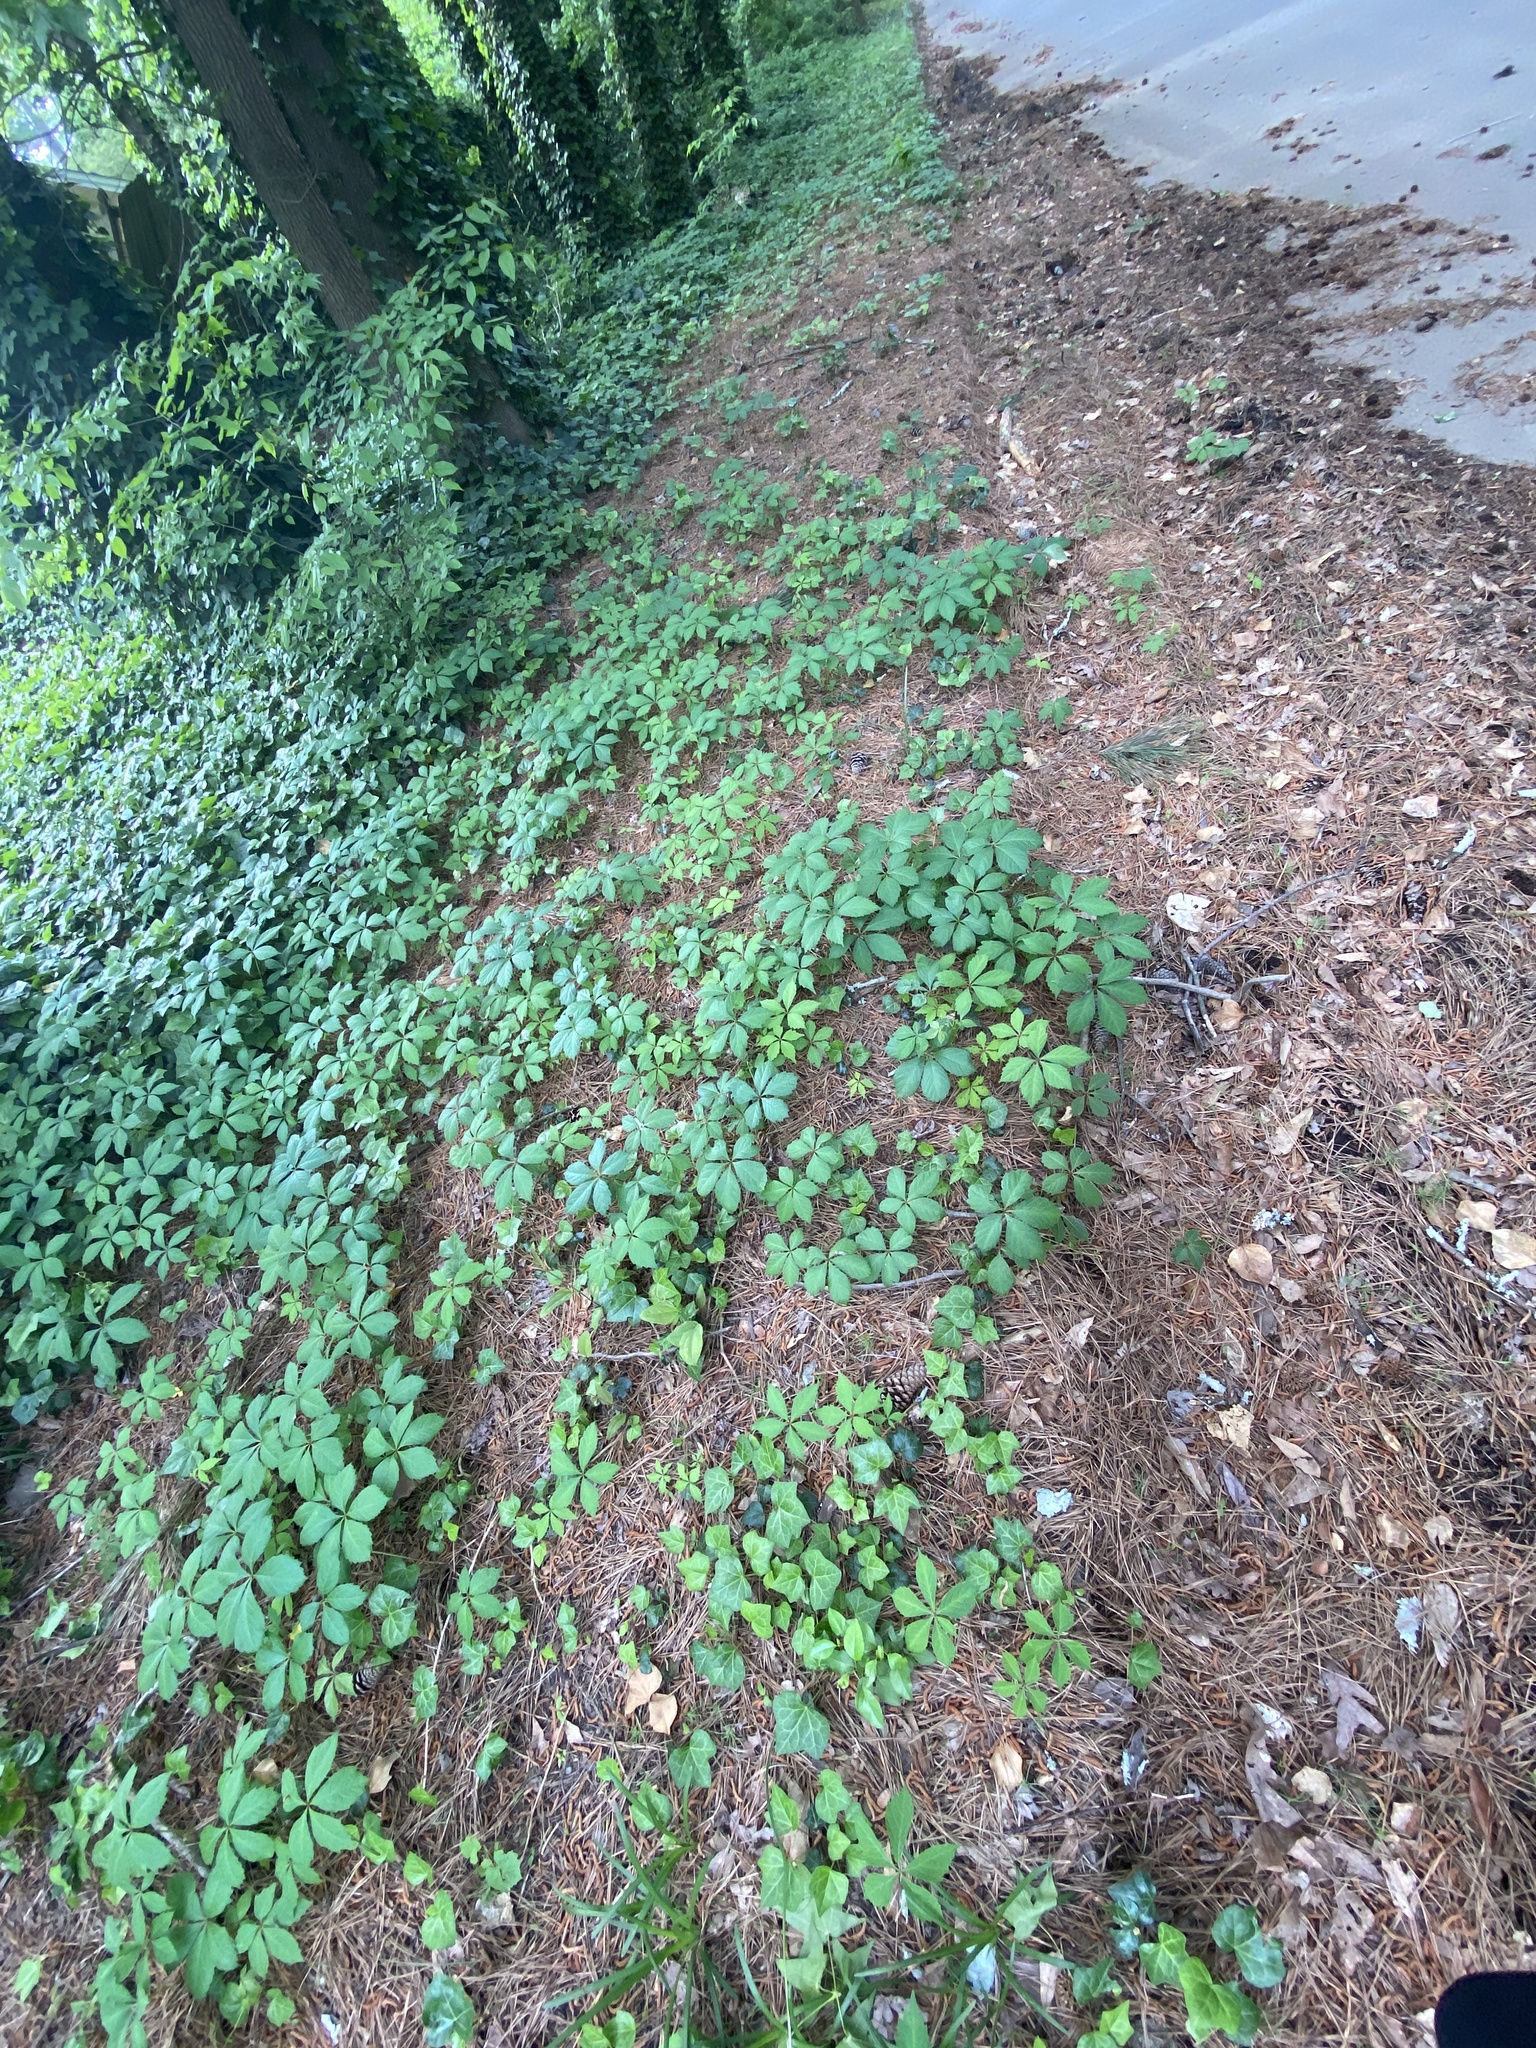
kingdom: Plantae
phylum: Tracheophyta
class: Magnoliopsida
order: Vitales
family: Vitaceae
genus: Parthenocissus
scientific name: Parthenocissus quinquefolia
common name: Virginia-creeper
